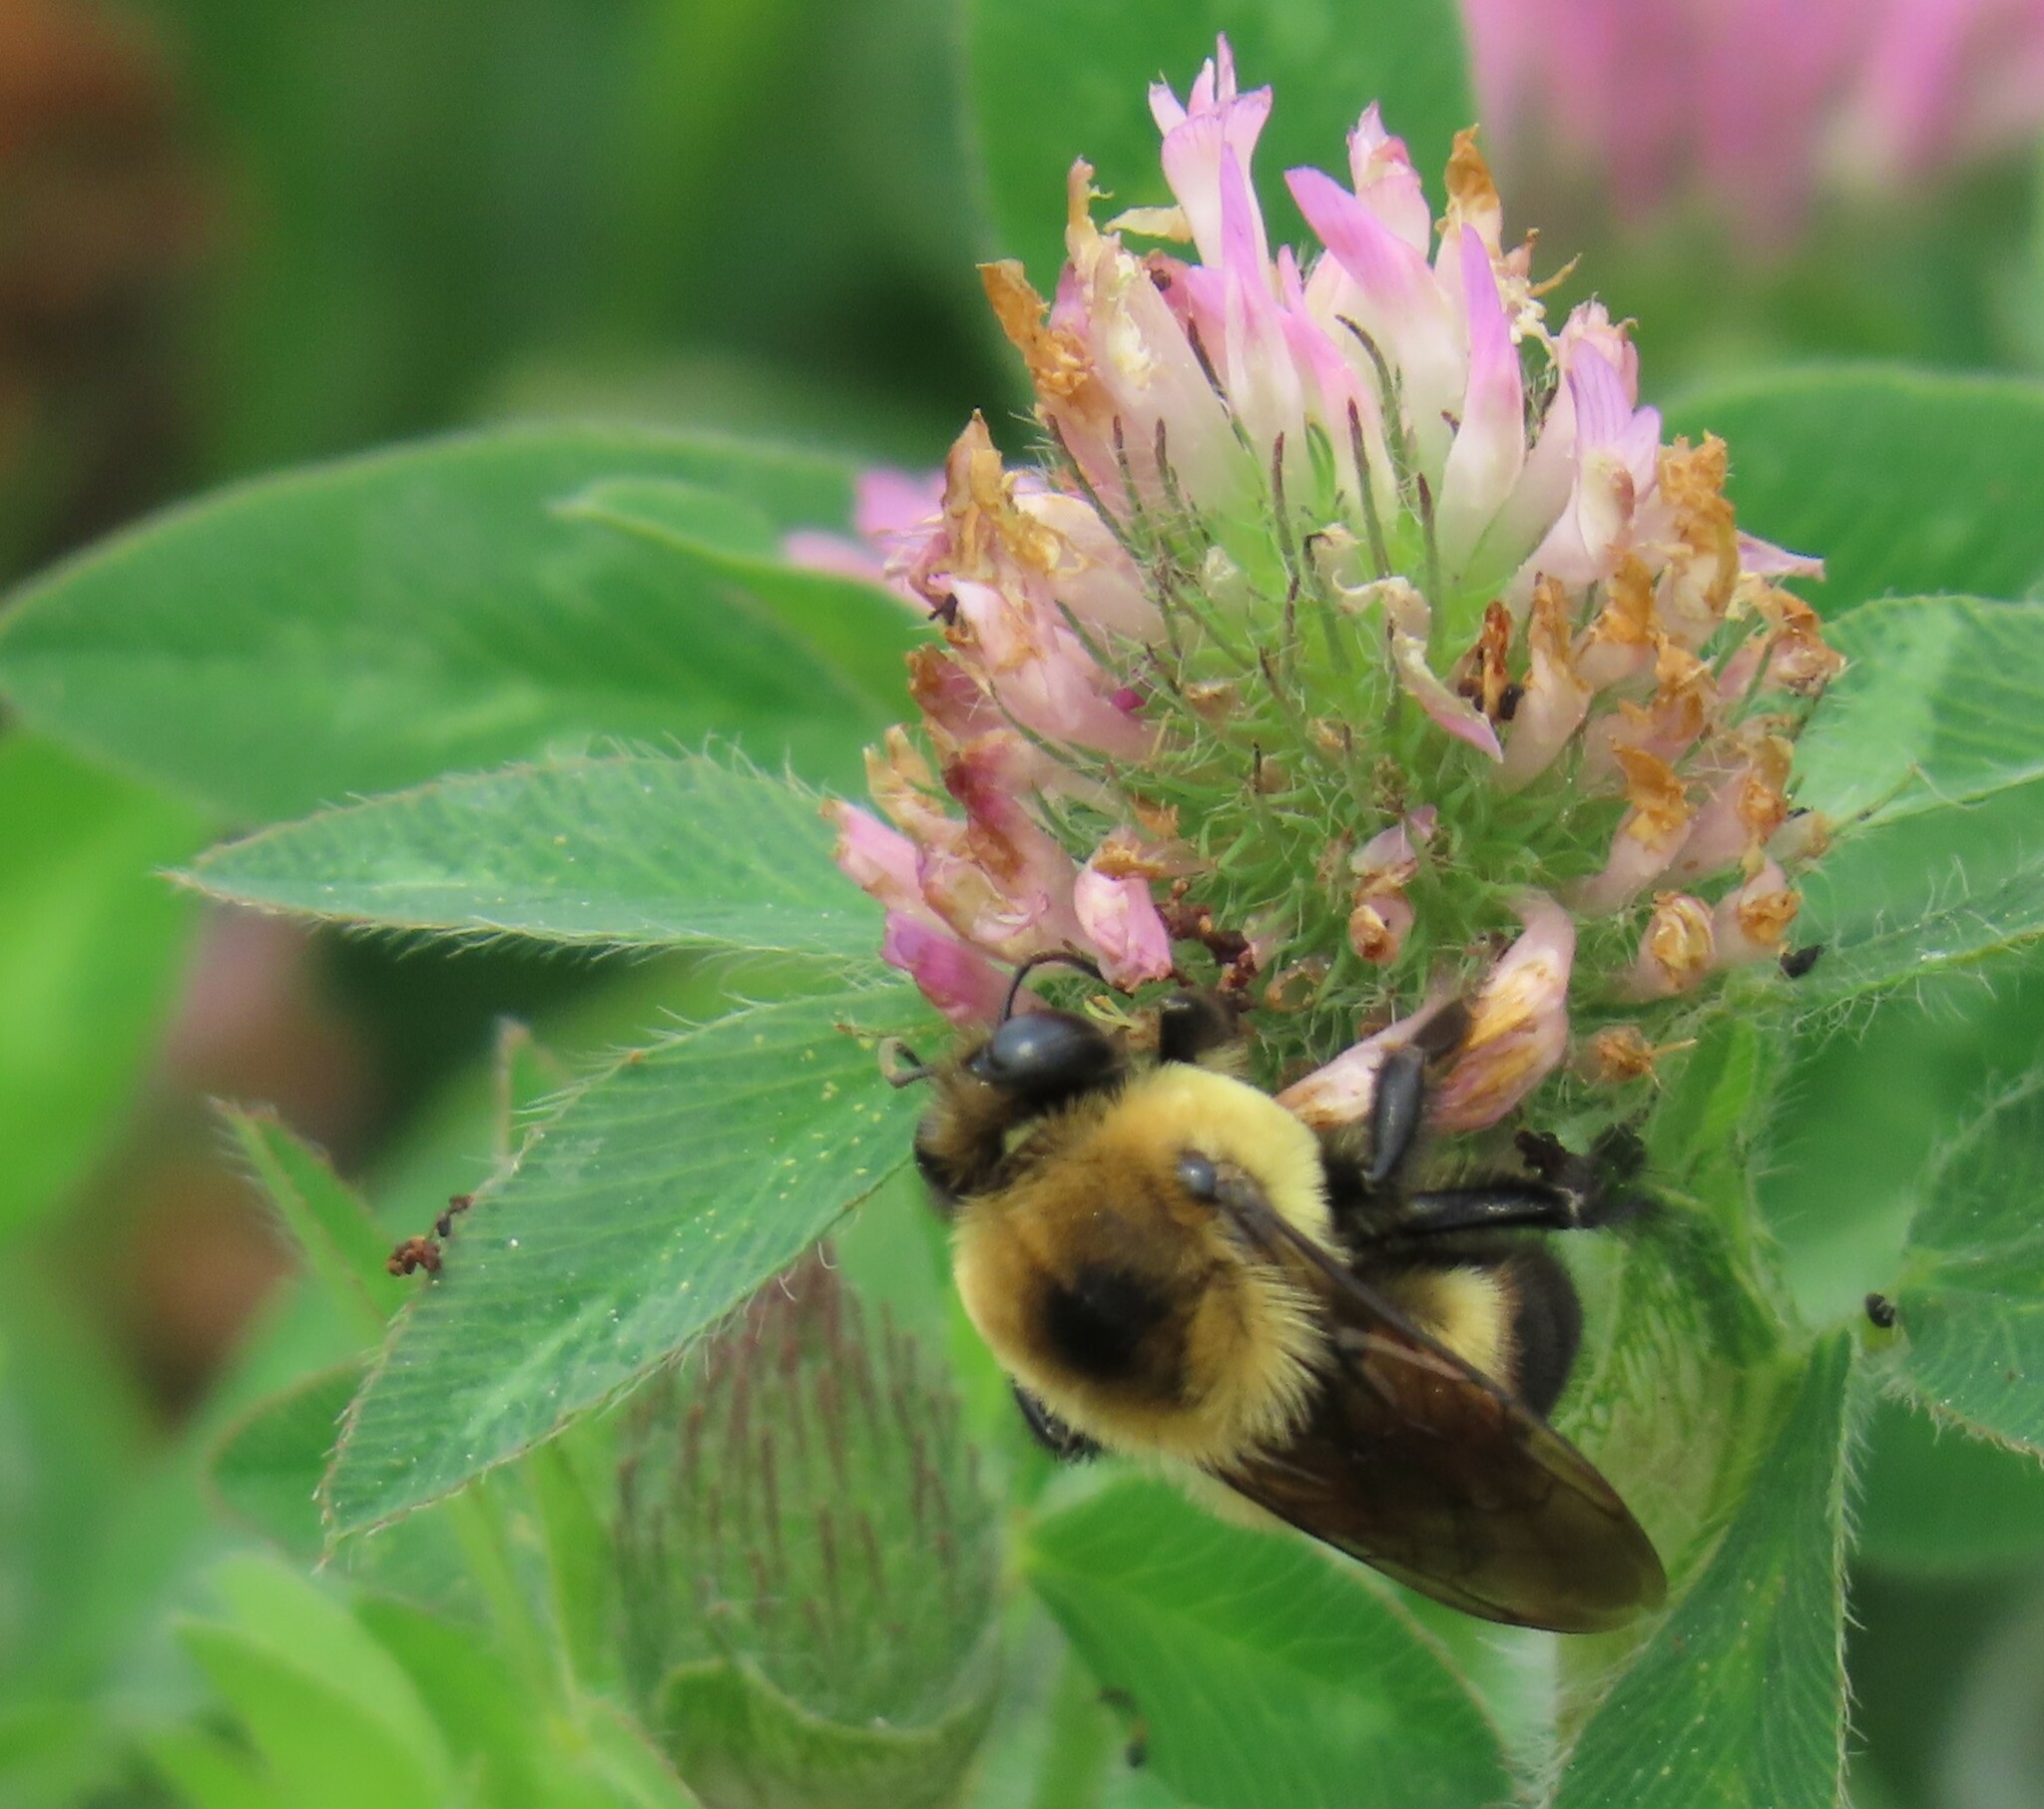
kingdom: Animalia
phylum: Arthropoda
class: Insecta
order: Hymenoptera
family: Apidae
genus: Bombus
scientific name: Bombus griseocollis
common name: Brown-belted bumble bee
